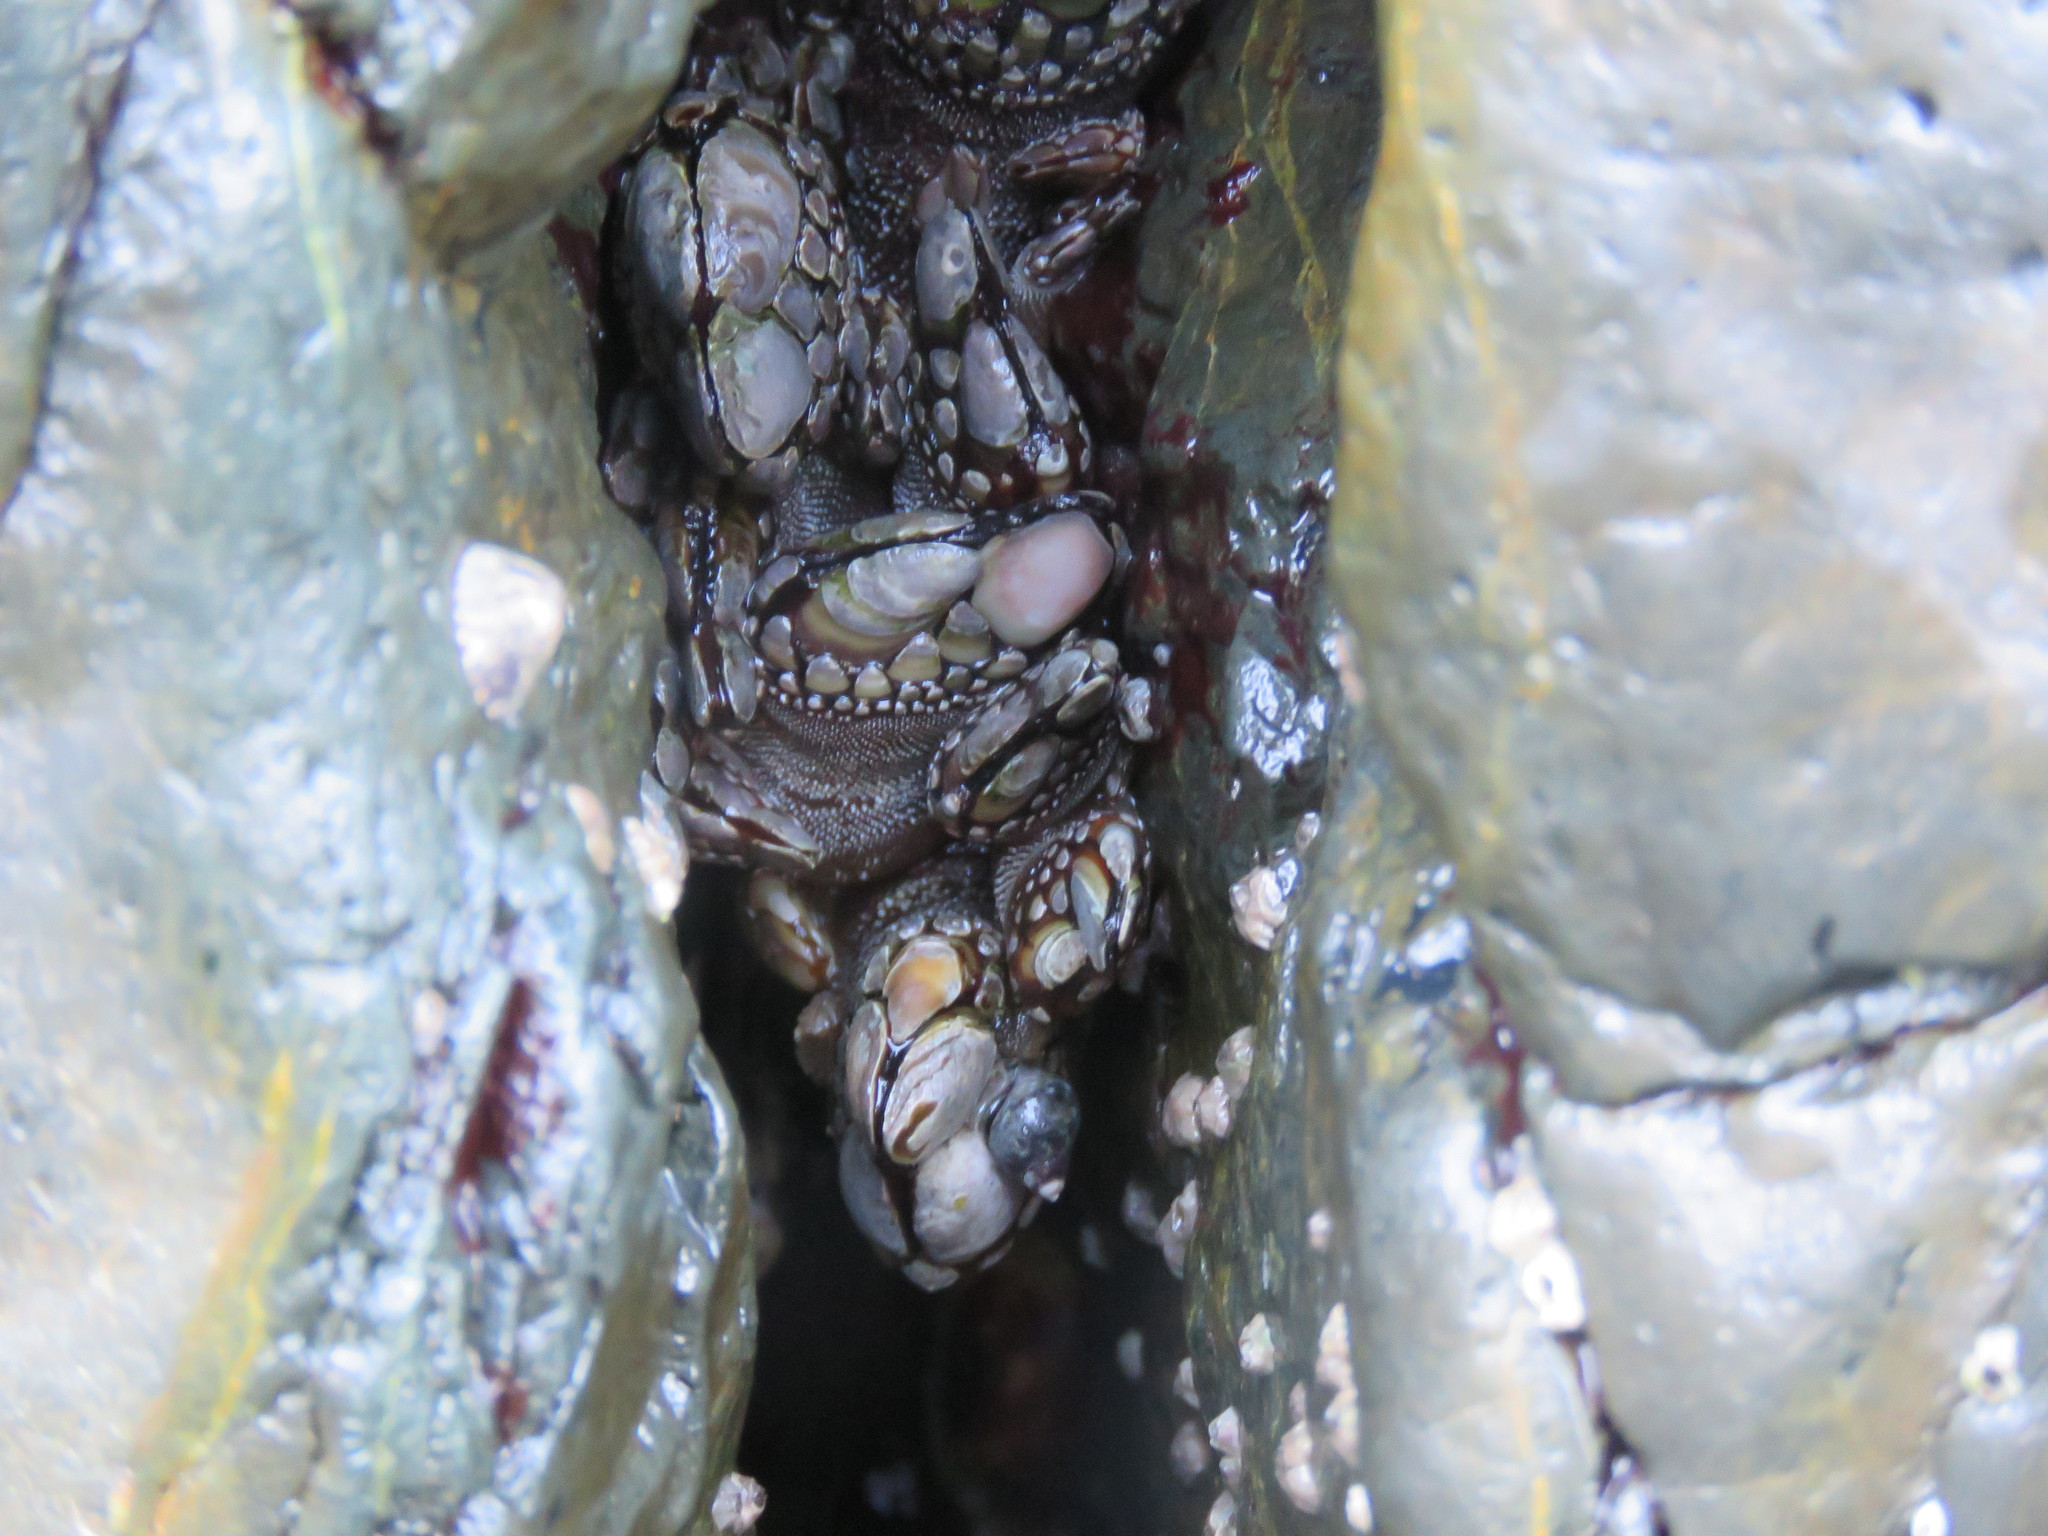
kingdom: Animalia
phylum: Arthropoda
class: Maxillopoda
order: Pedunculata
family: Pollicipedidae
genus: Pollicipes
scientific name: Pollicipes polymerus
